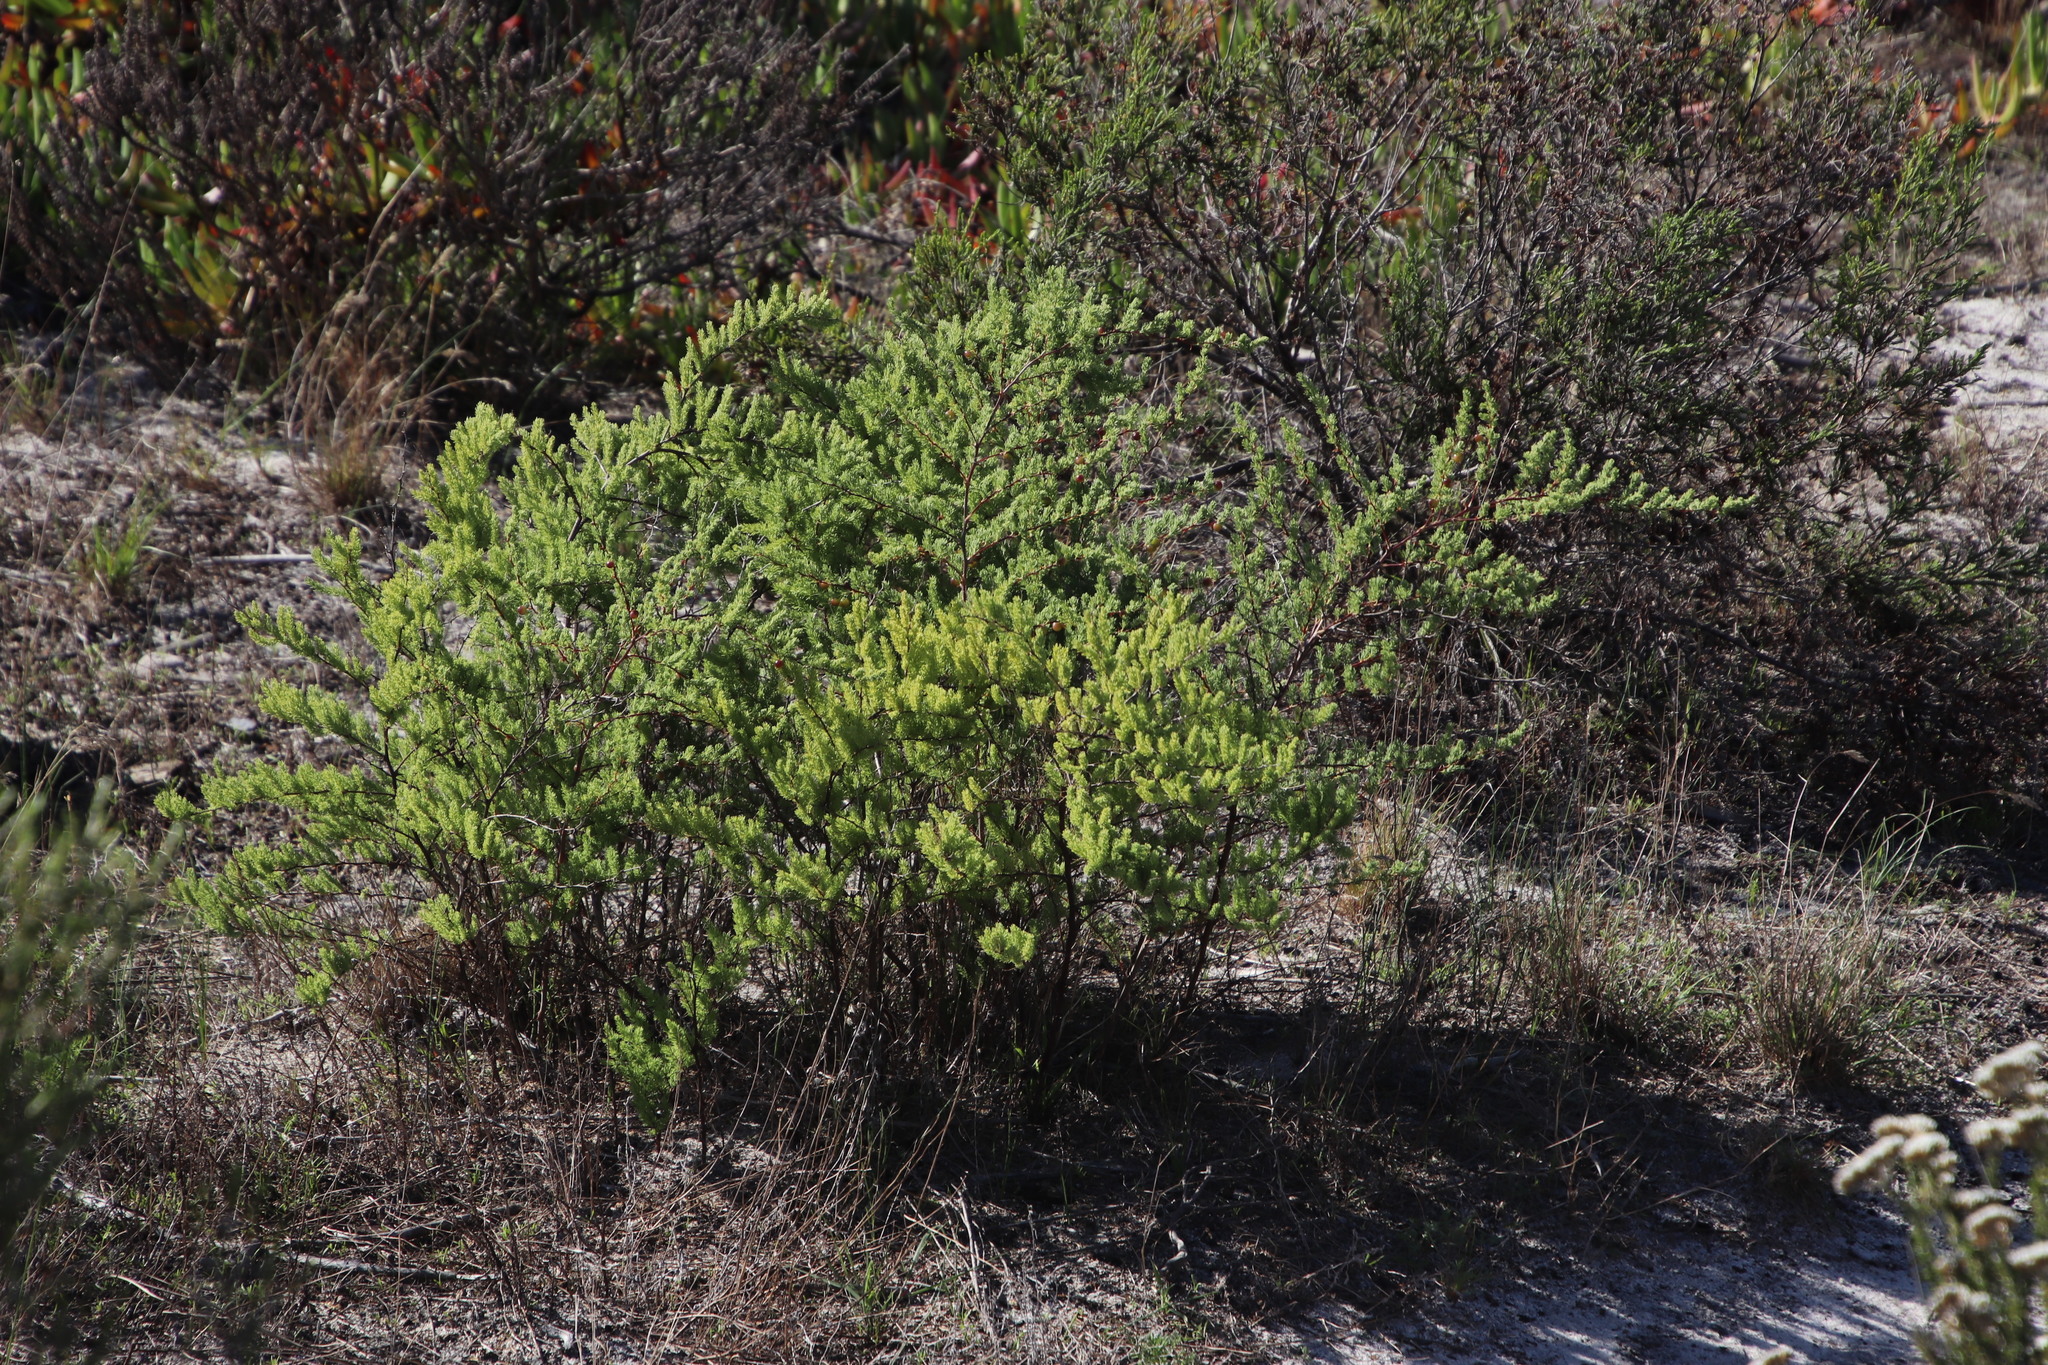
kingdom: Plantae
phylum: Tracheophyta
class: Liliopsida
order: Asparagales
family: Asparagaceae
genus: Asparagus
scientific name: Asparagus rubicundus
